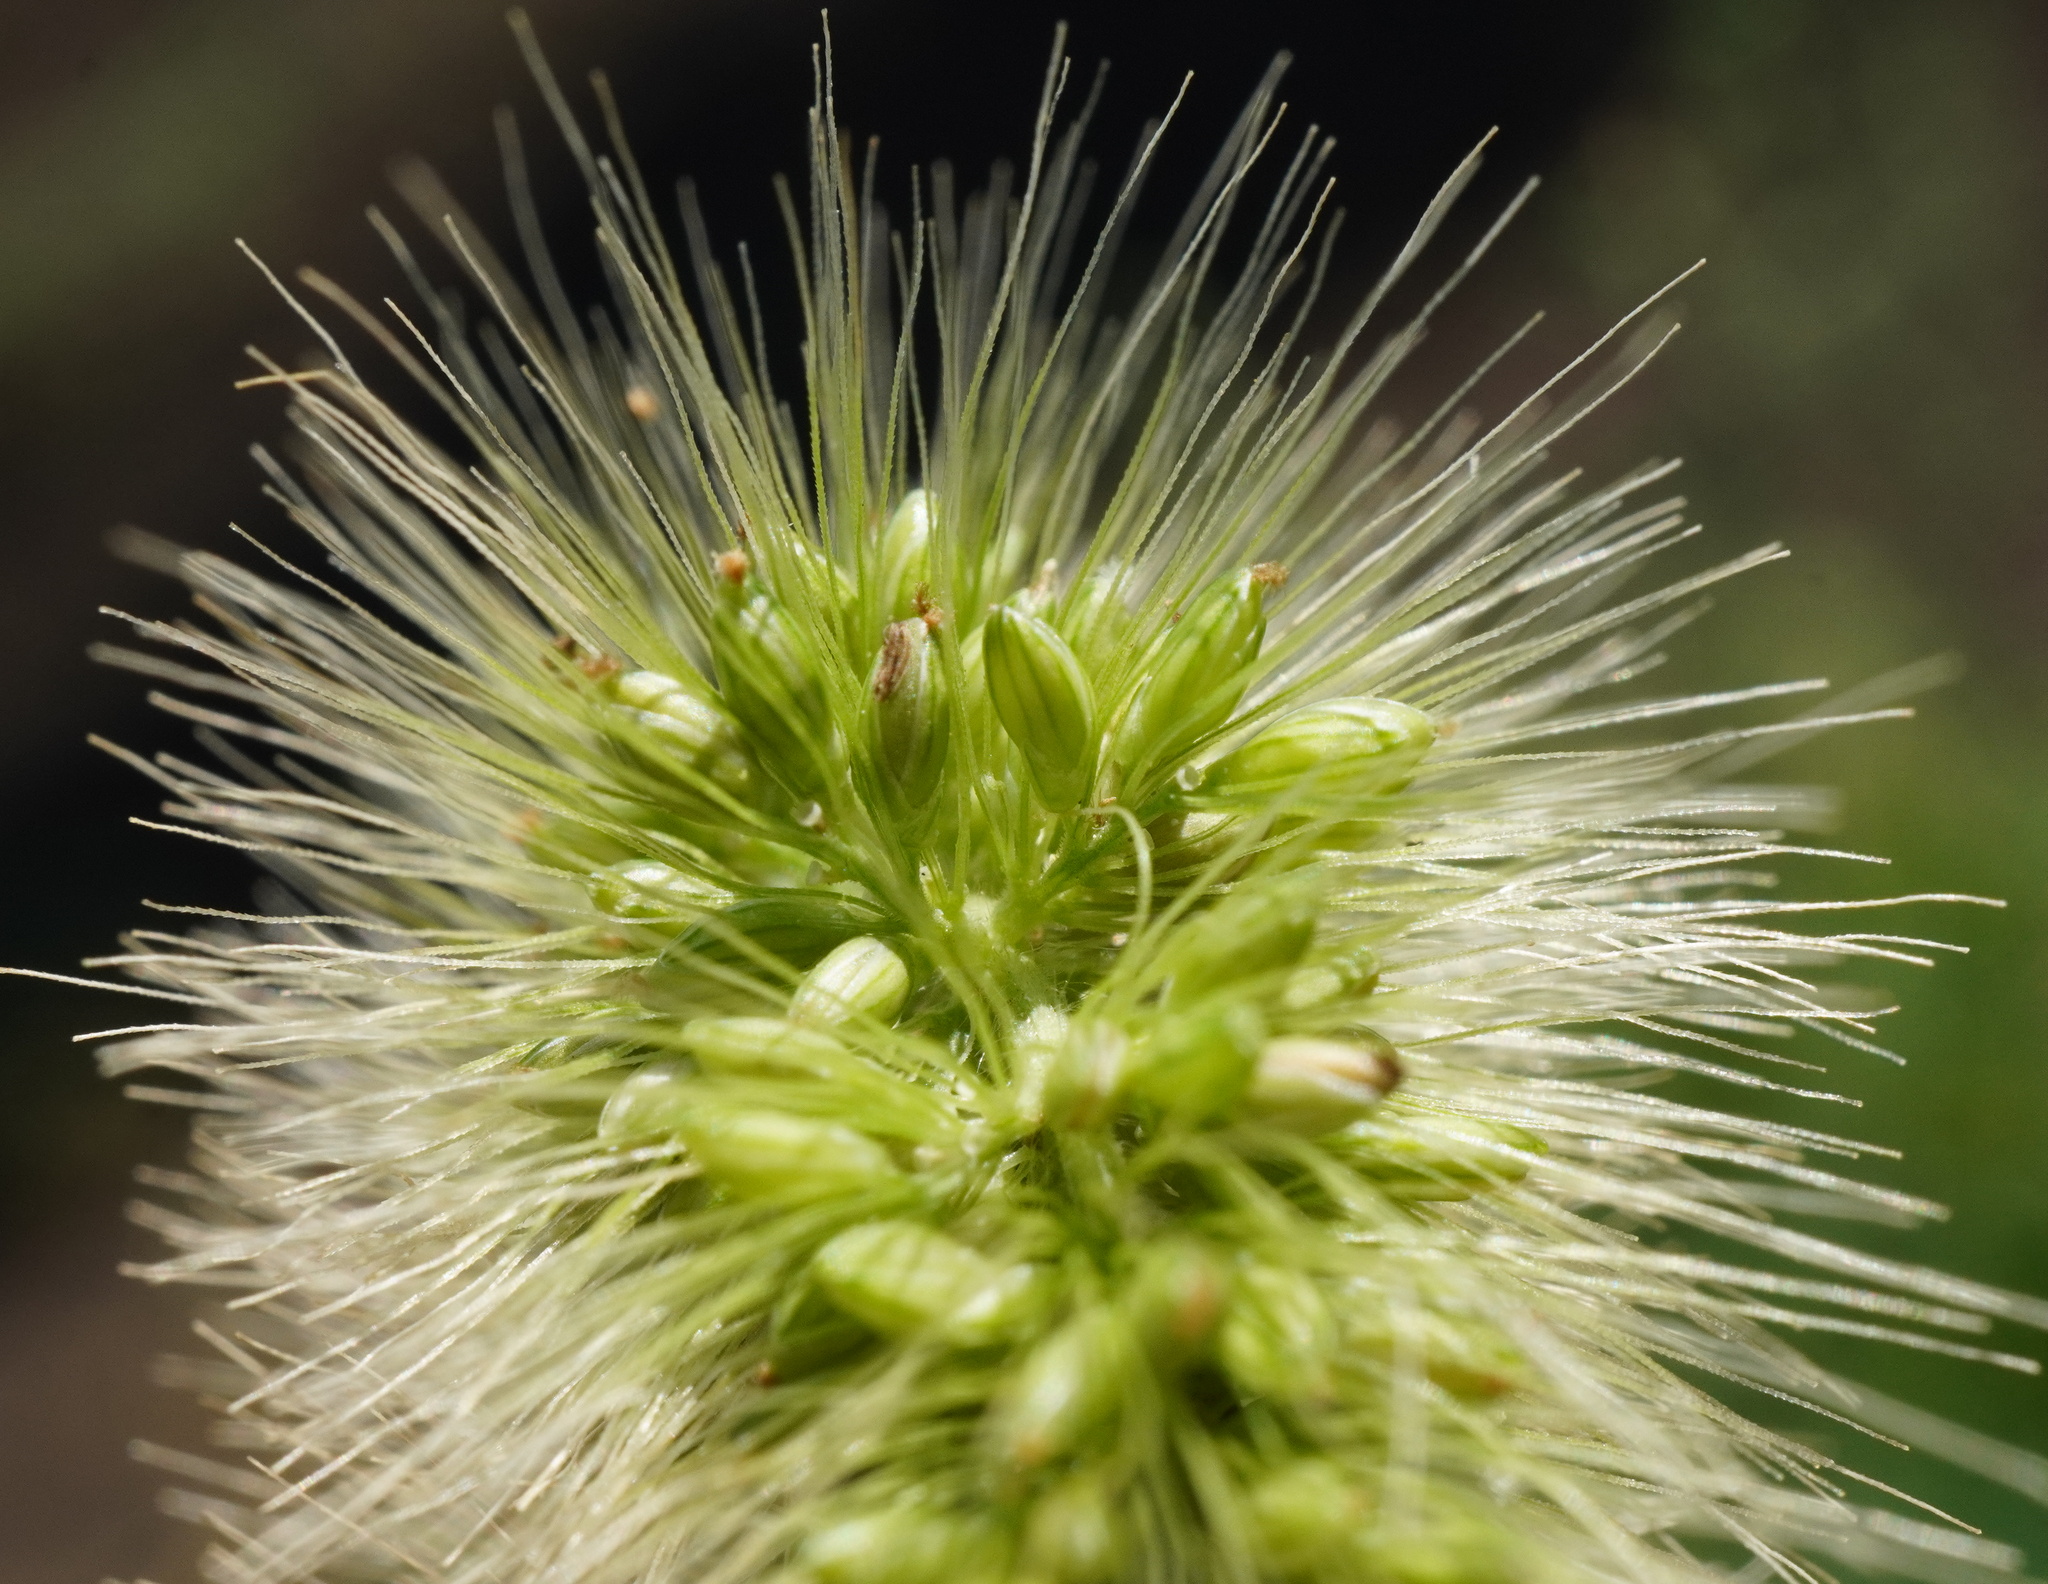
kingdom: Plantae
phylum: Tracheophyta
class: Liliopsida
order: Poales
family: Poaceae
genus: Setaria
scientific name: Setaria verticillata
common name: Hooked bristlegrass
